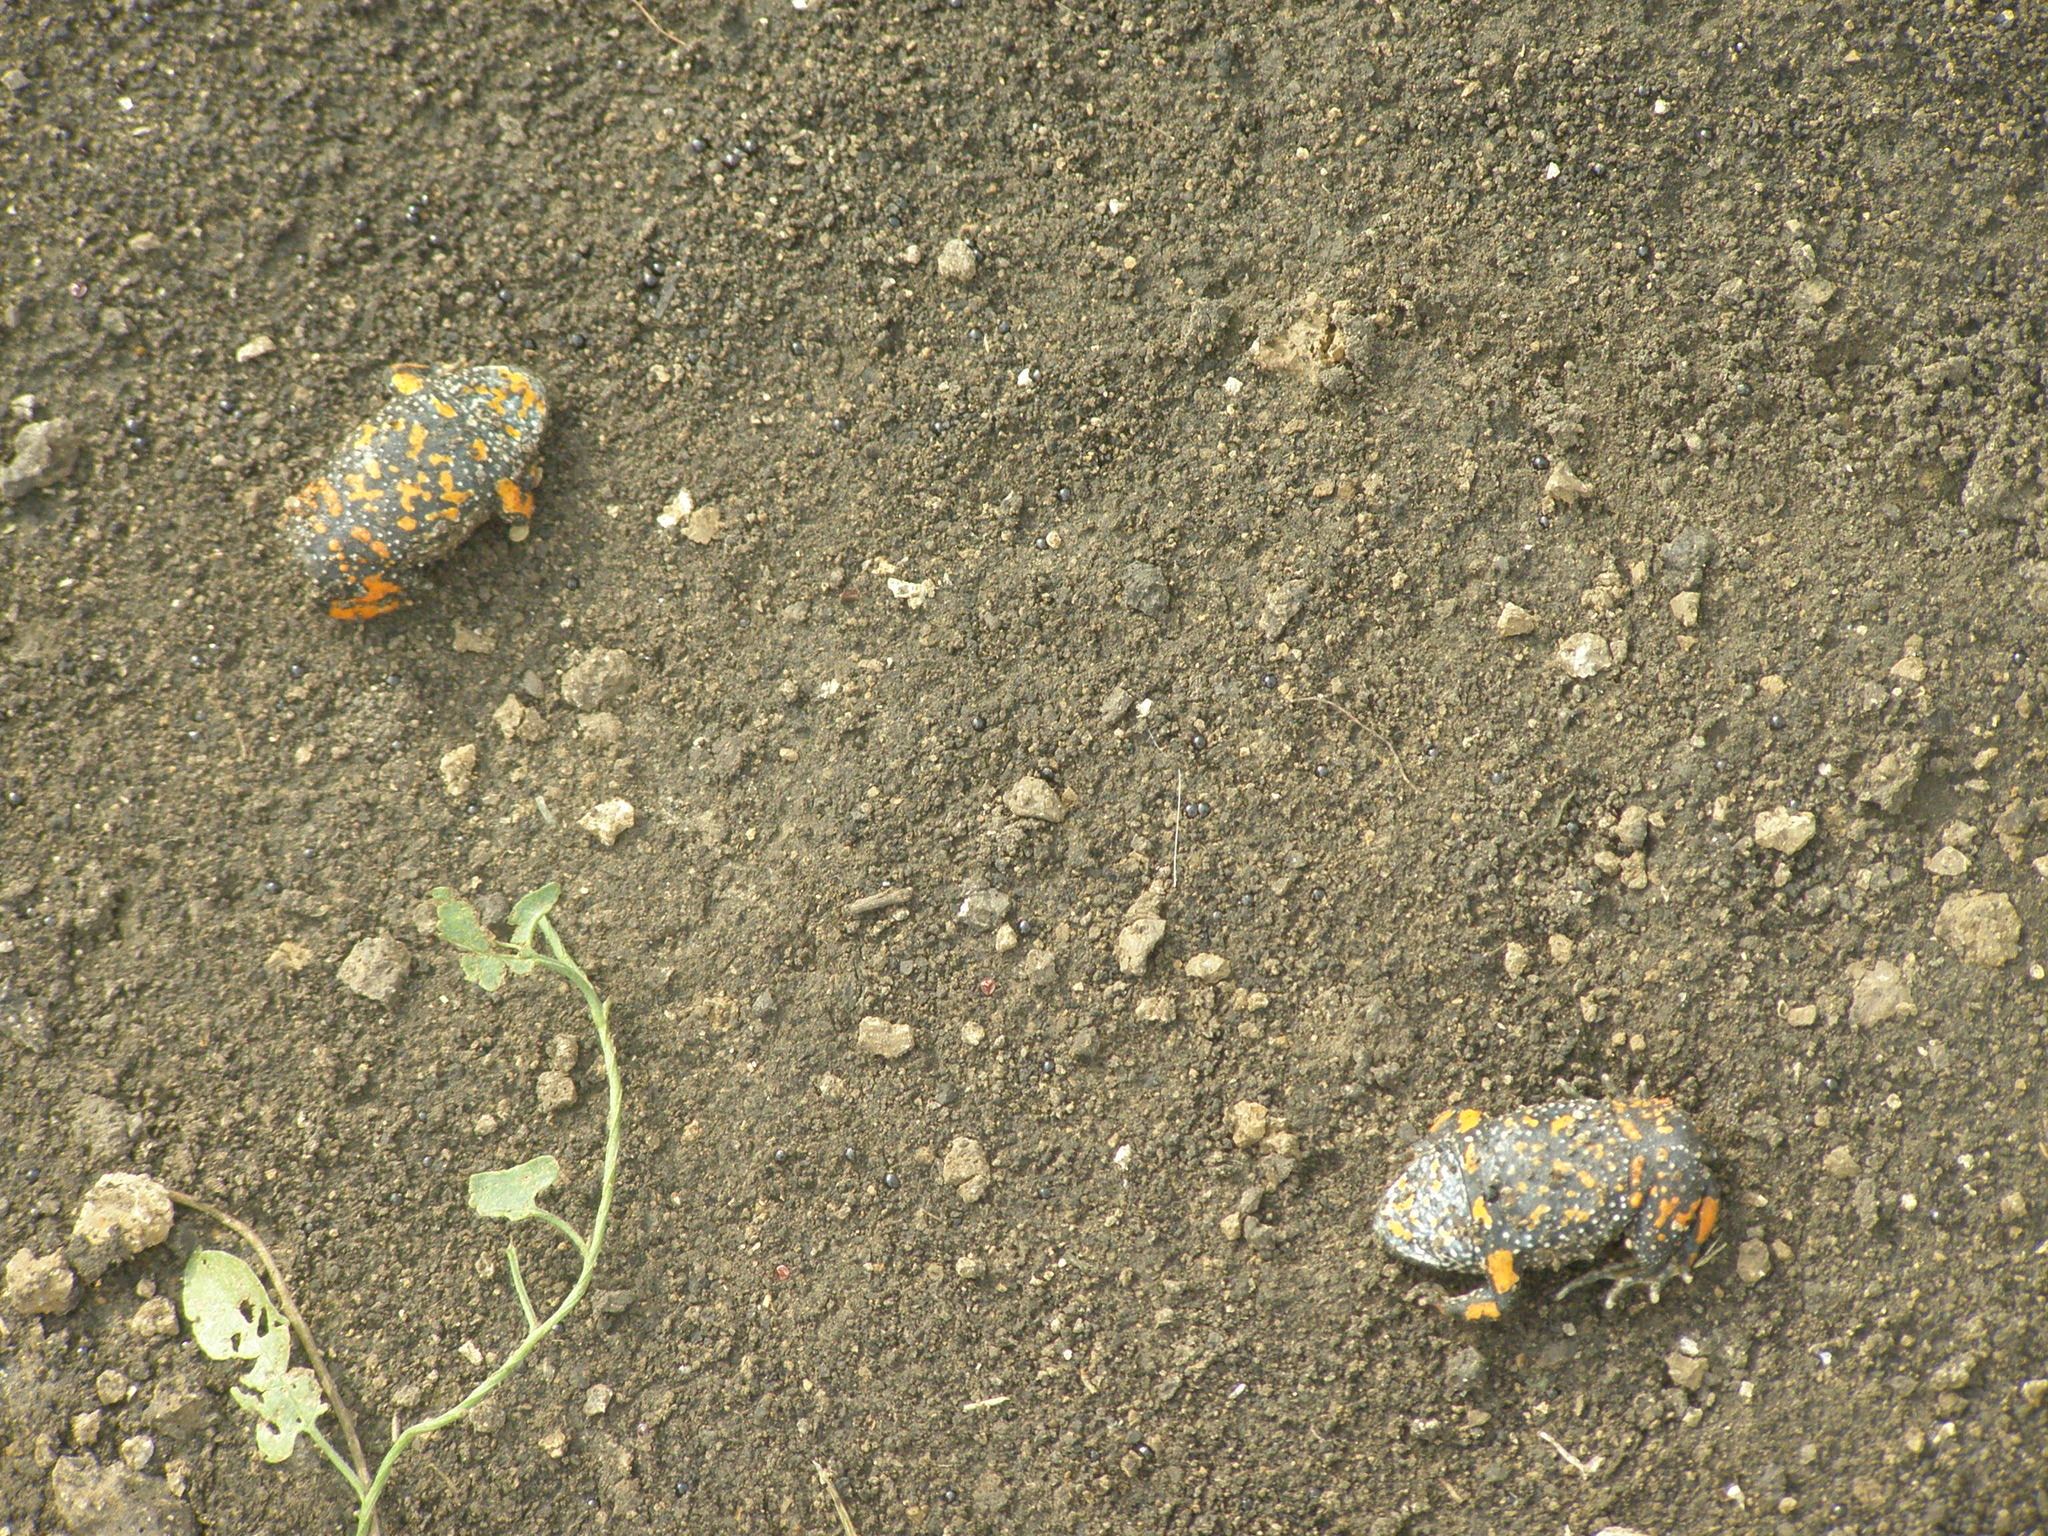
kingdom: Animalia
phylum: Chordata
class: Amphibia
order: Anura
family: Bombinatoridae
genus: Bombina
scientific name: Bombina bombina
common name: Fire-bellied toad
